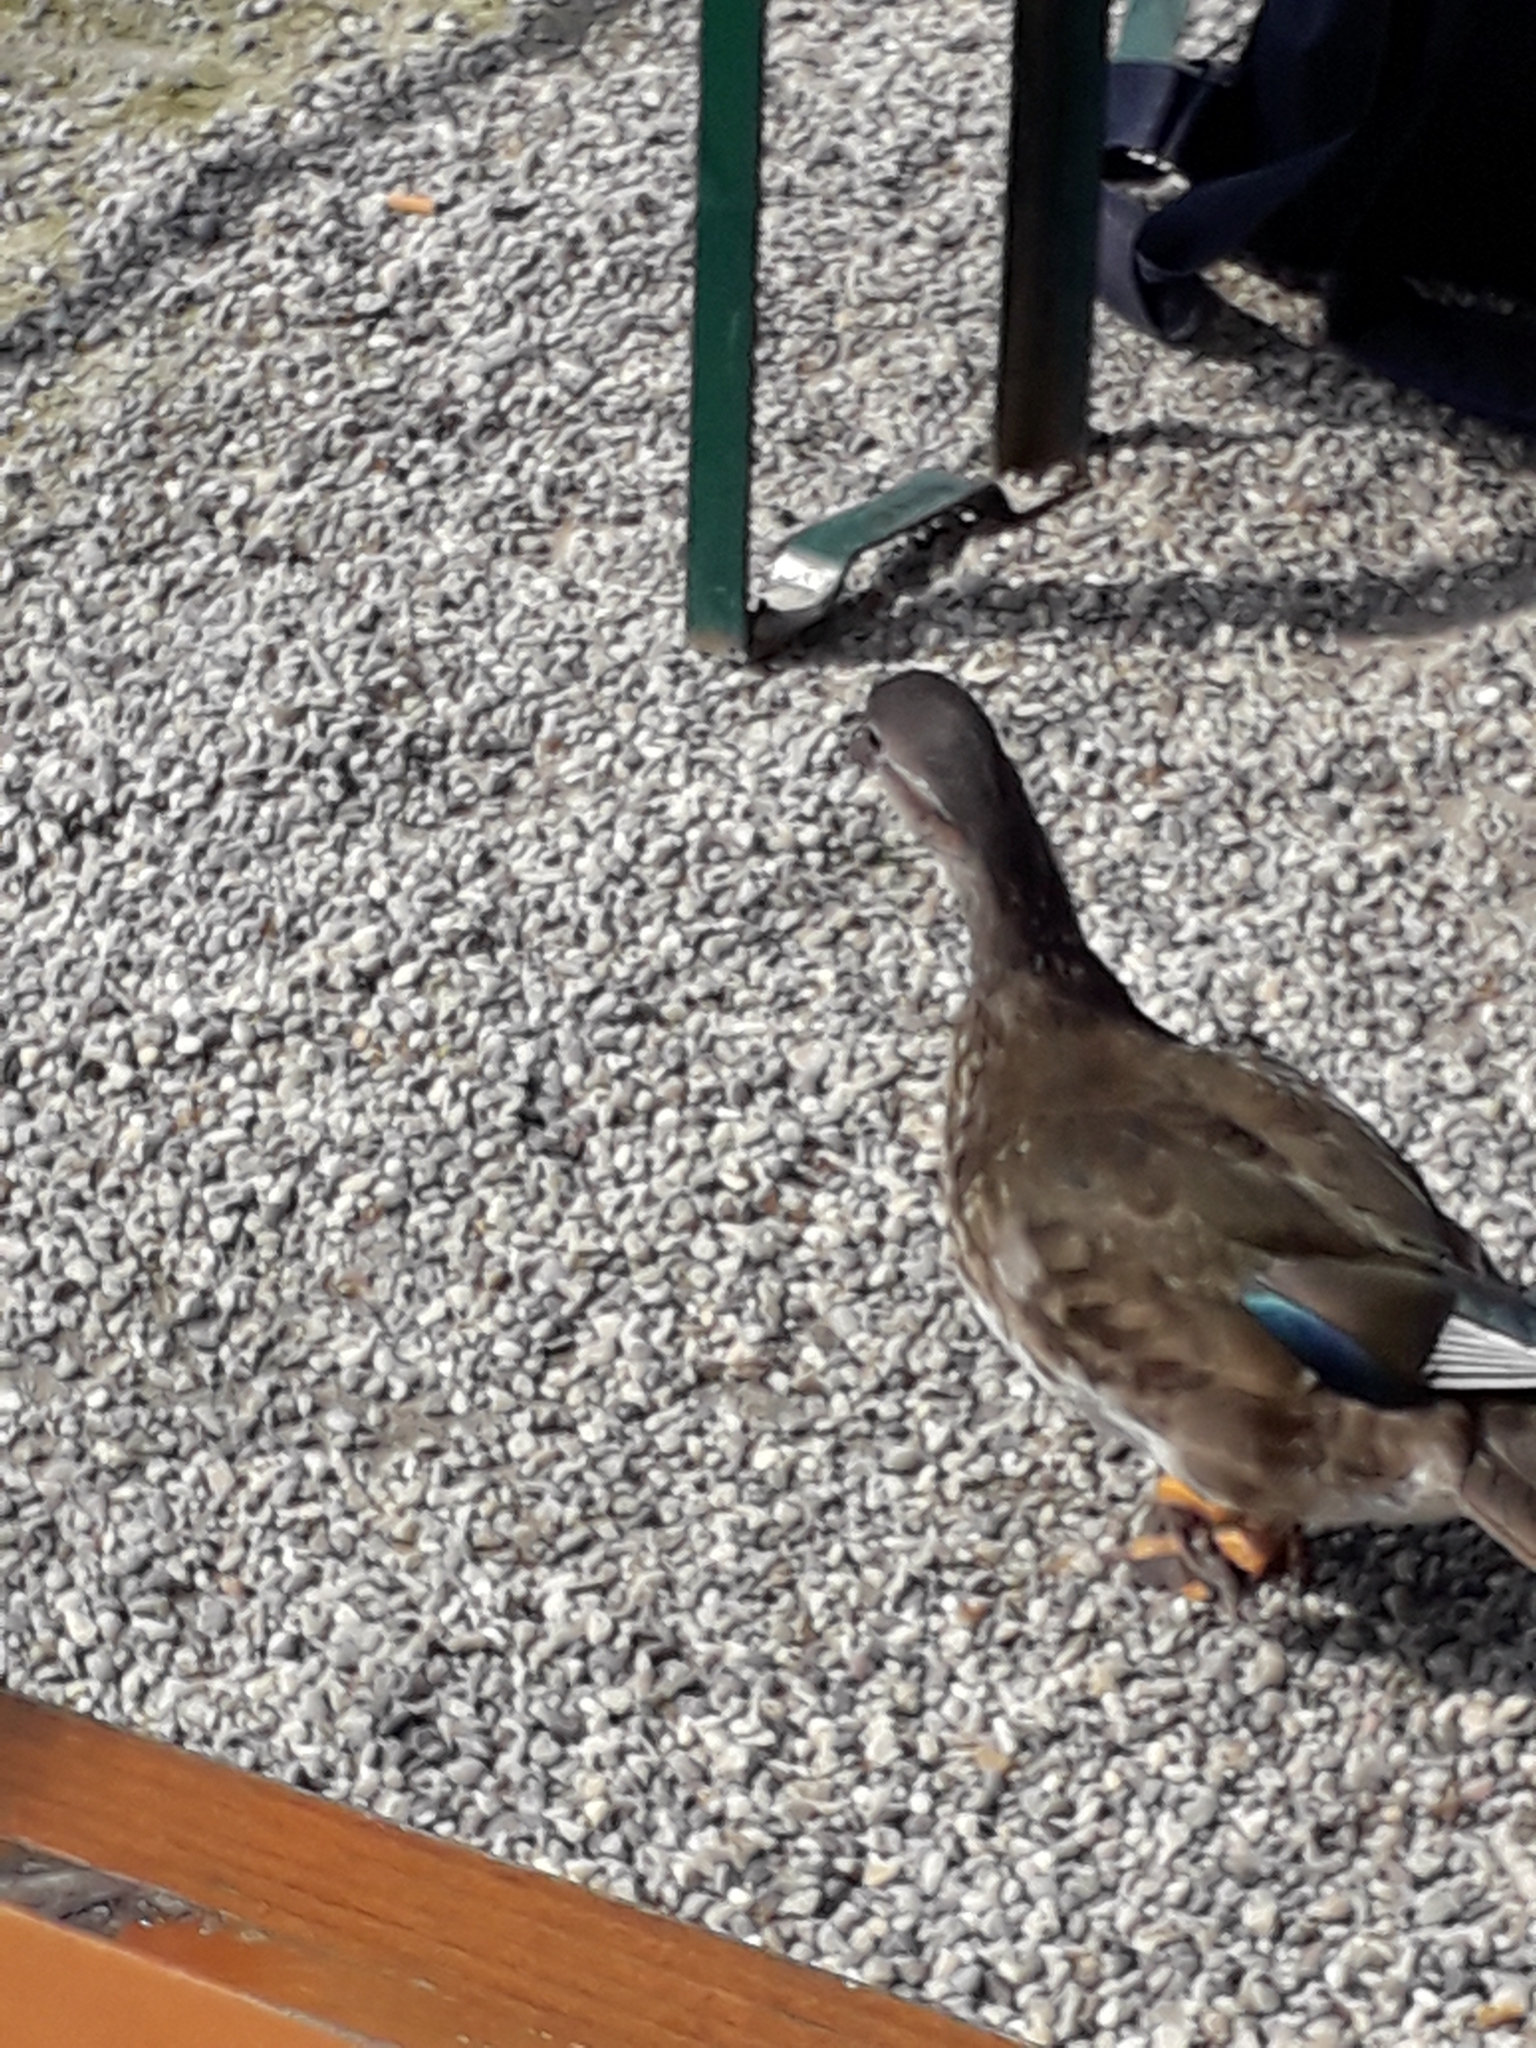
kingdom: Animalia
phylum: Chordata
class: Aves
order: Anseriformes
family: Anatidae
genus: Aix
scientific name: Aix galericulata
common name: Mandarin duck
